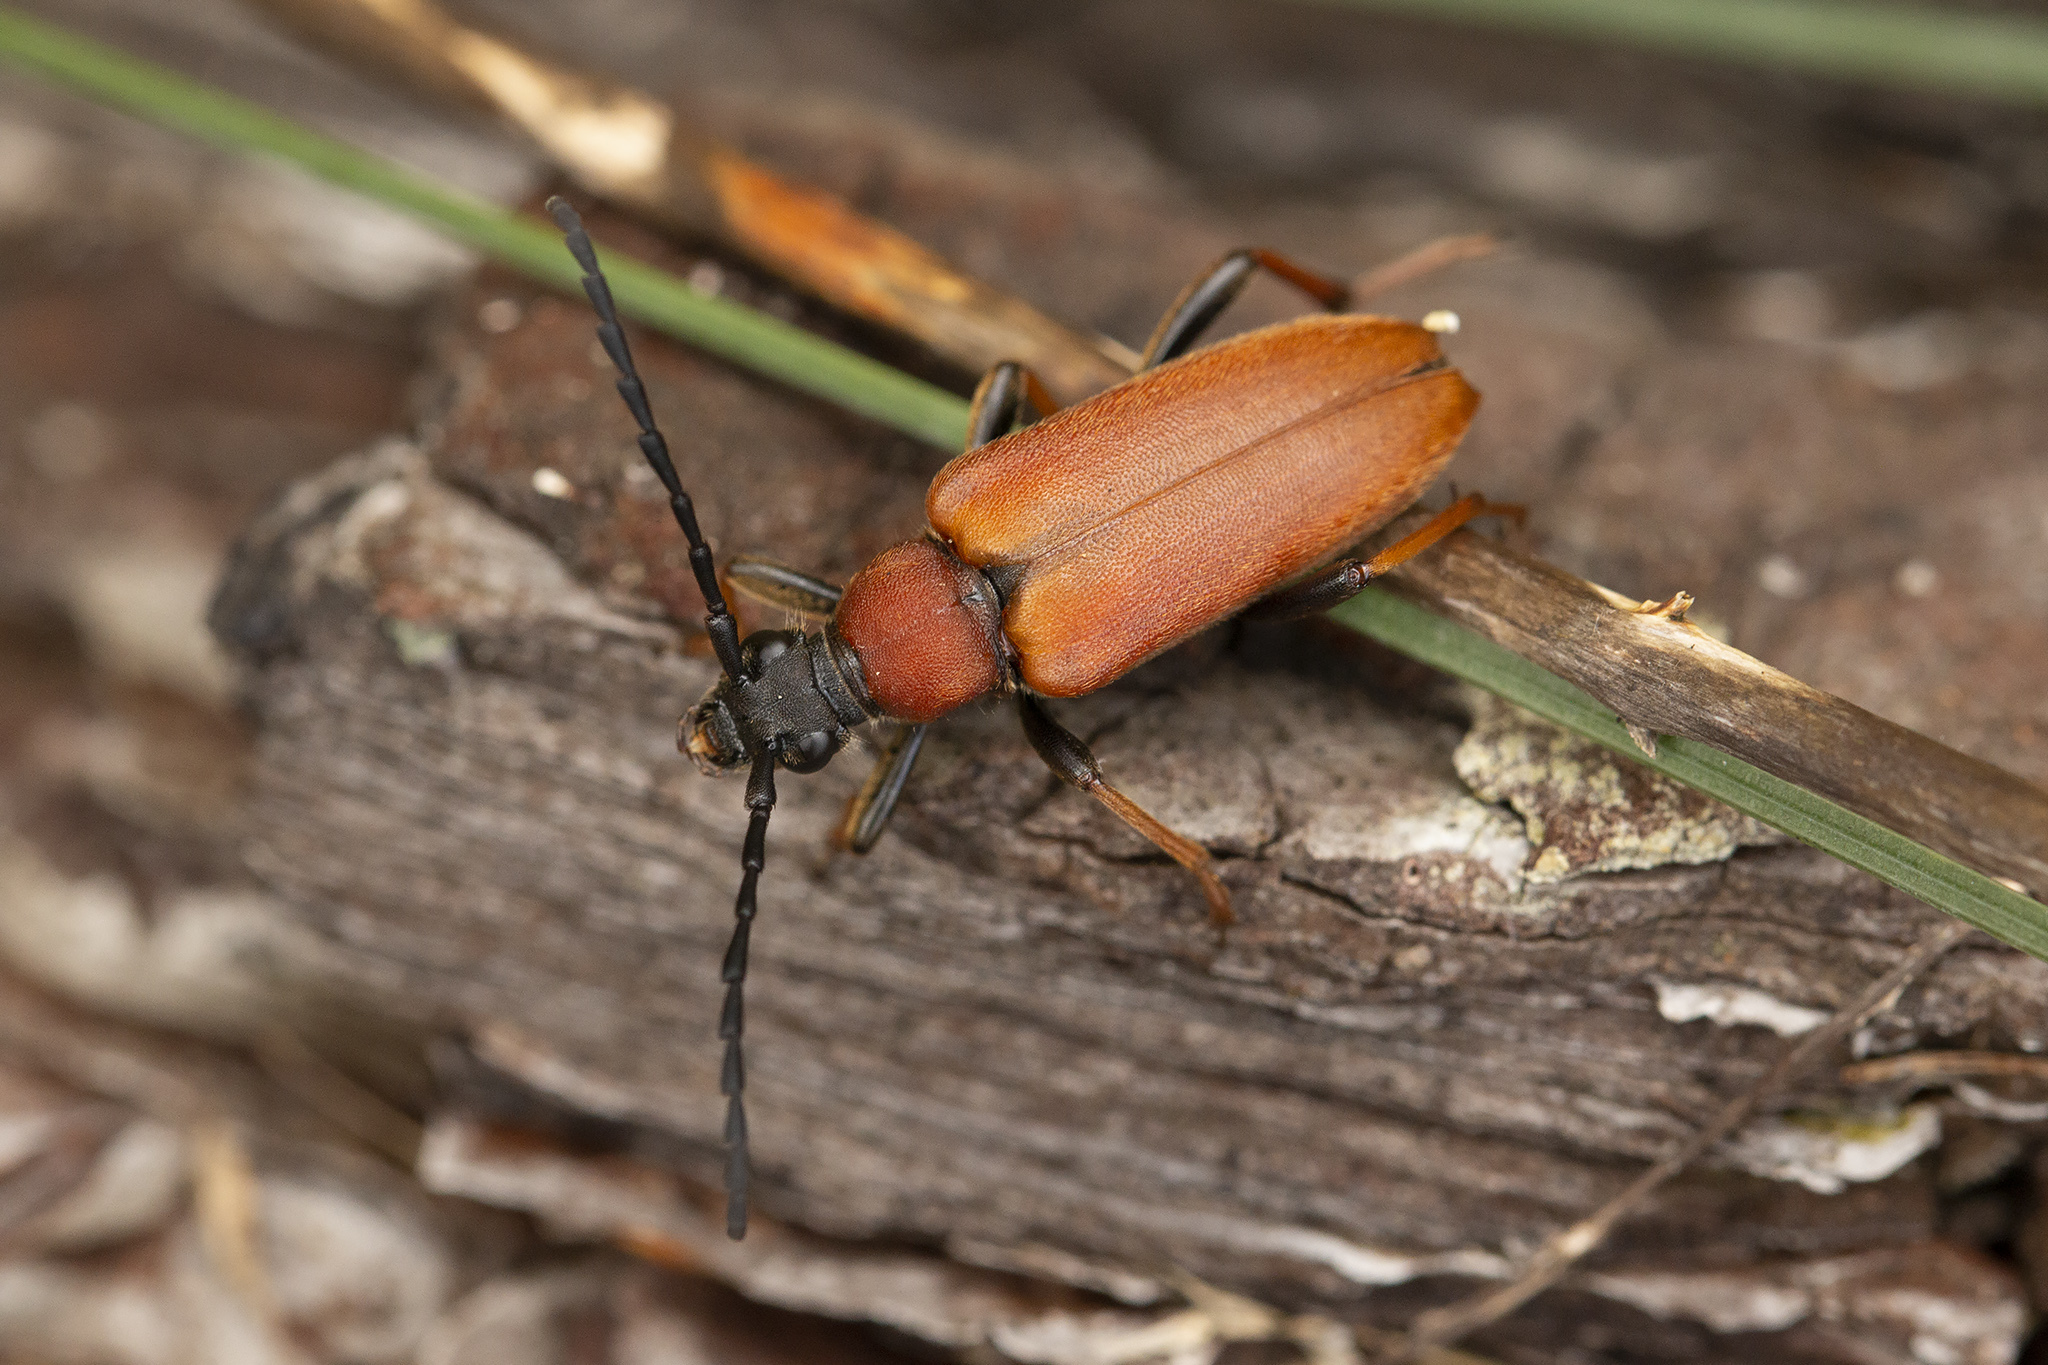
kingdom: Animalia
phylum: Arthropoda
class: Insecta
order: Coleoptera
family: Cerambycidae
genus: Stictoleptura
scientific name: Stictoleptura rubra
